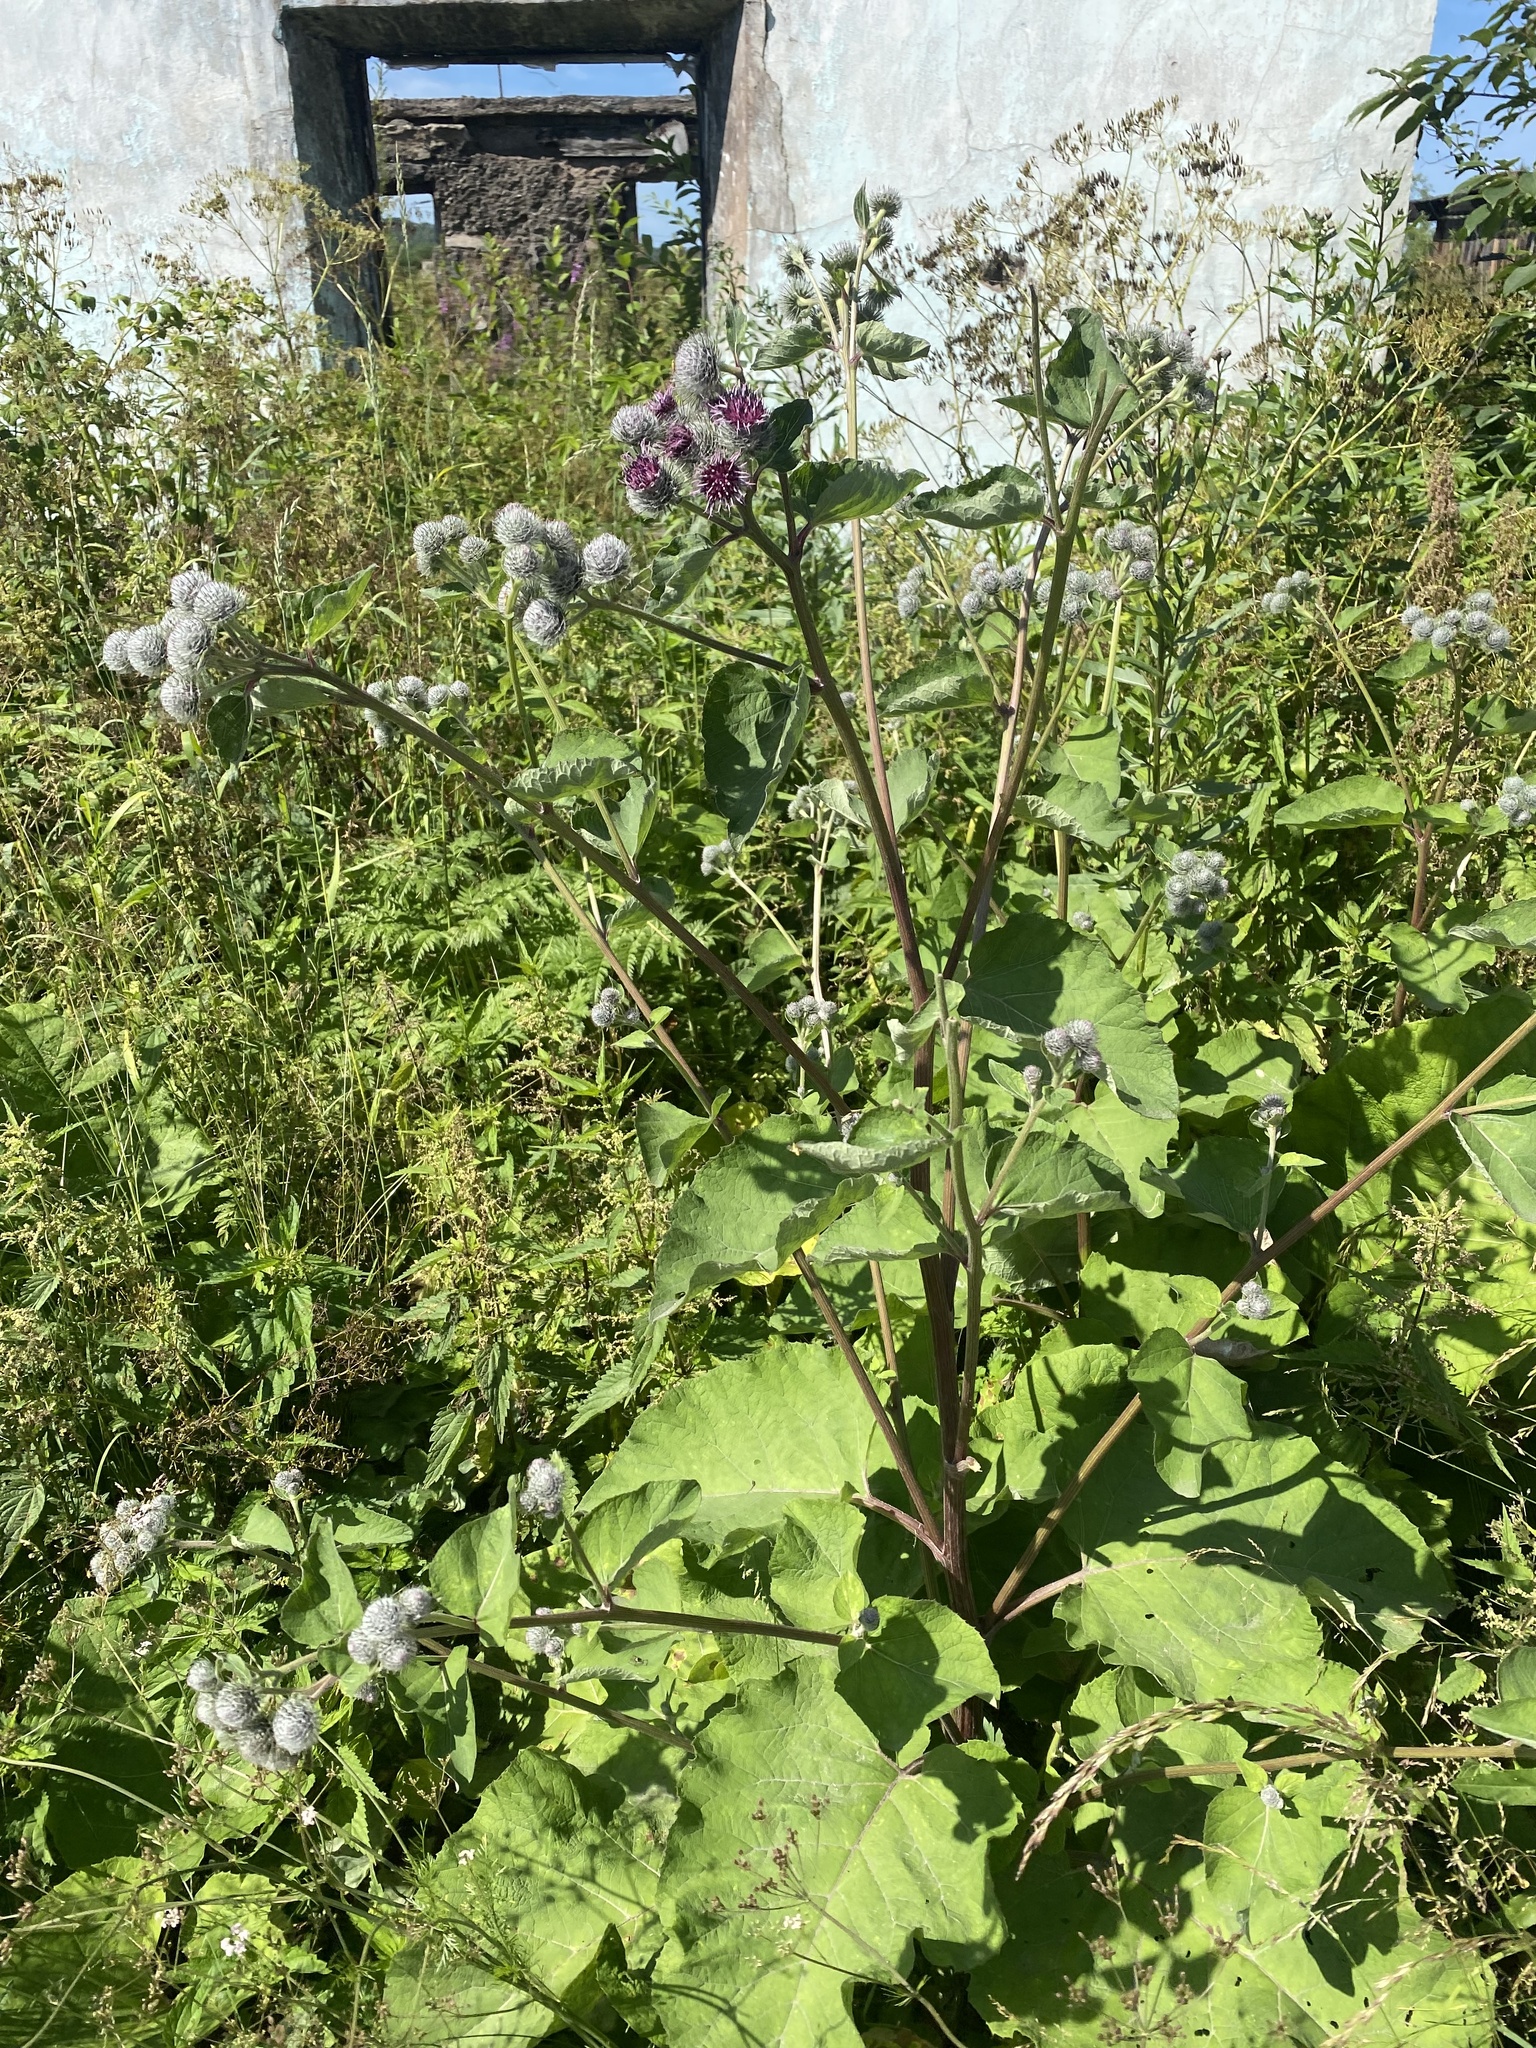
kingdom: Plantae
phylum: Tracheophyta
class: Magnoliopsida
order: Asterales
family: Asteraceae
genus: Arctium
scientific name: Arctium tomentosum
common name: Woolly burdock
